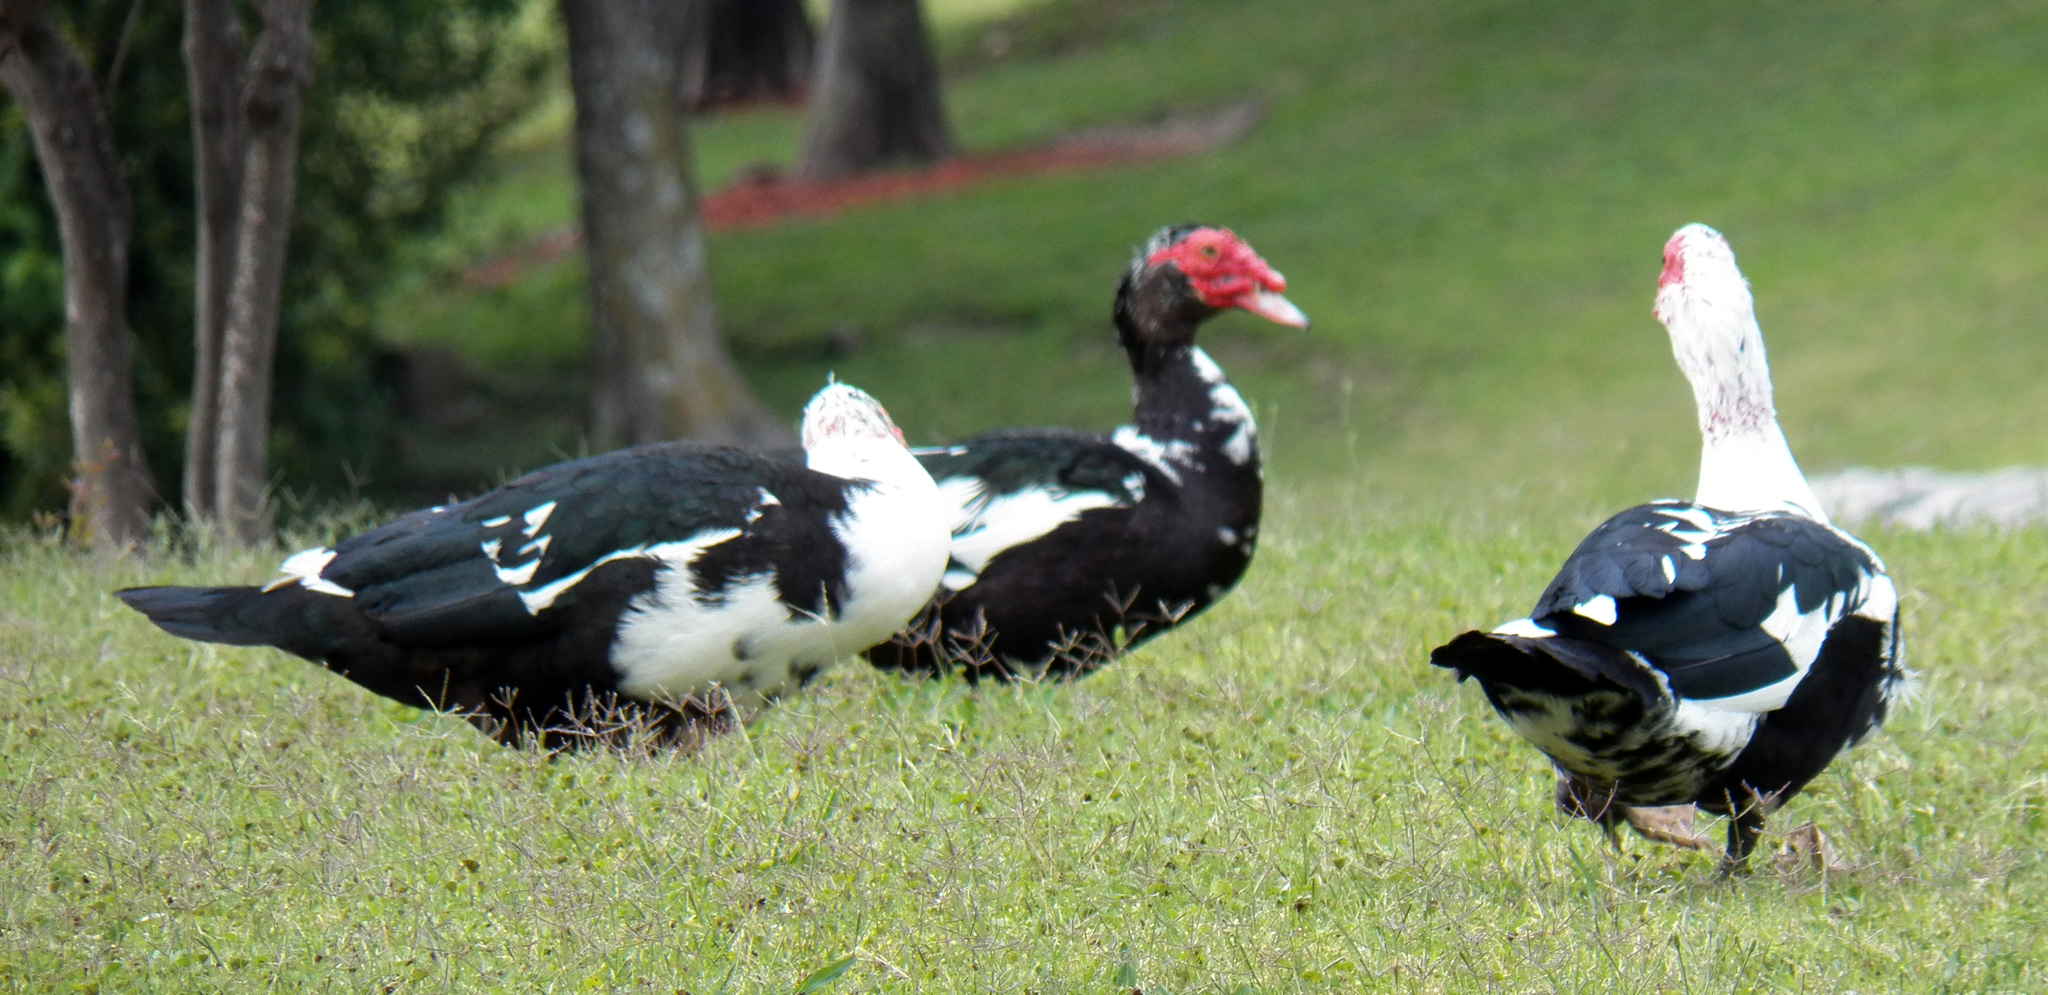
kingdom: Animalia
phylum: Chordata
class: Aves
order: Anseriformes
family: Anatidae
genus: Cairina
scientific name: Cairina moschata
